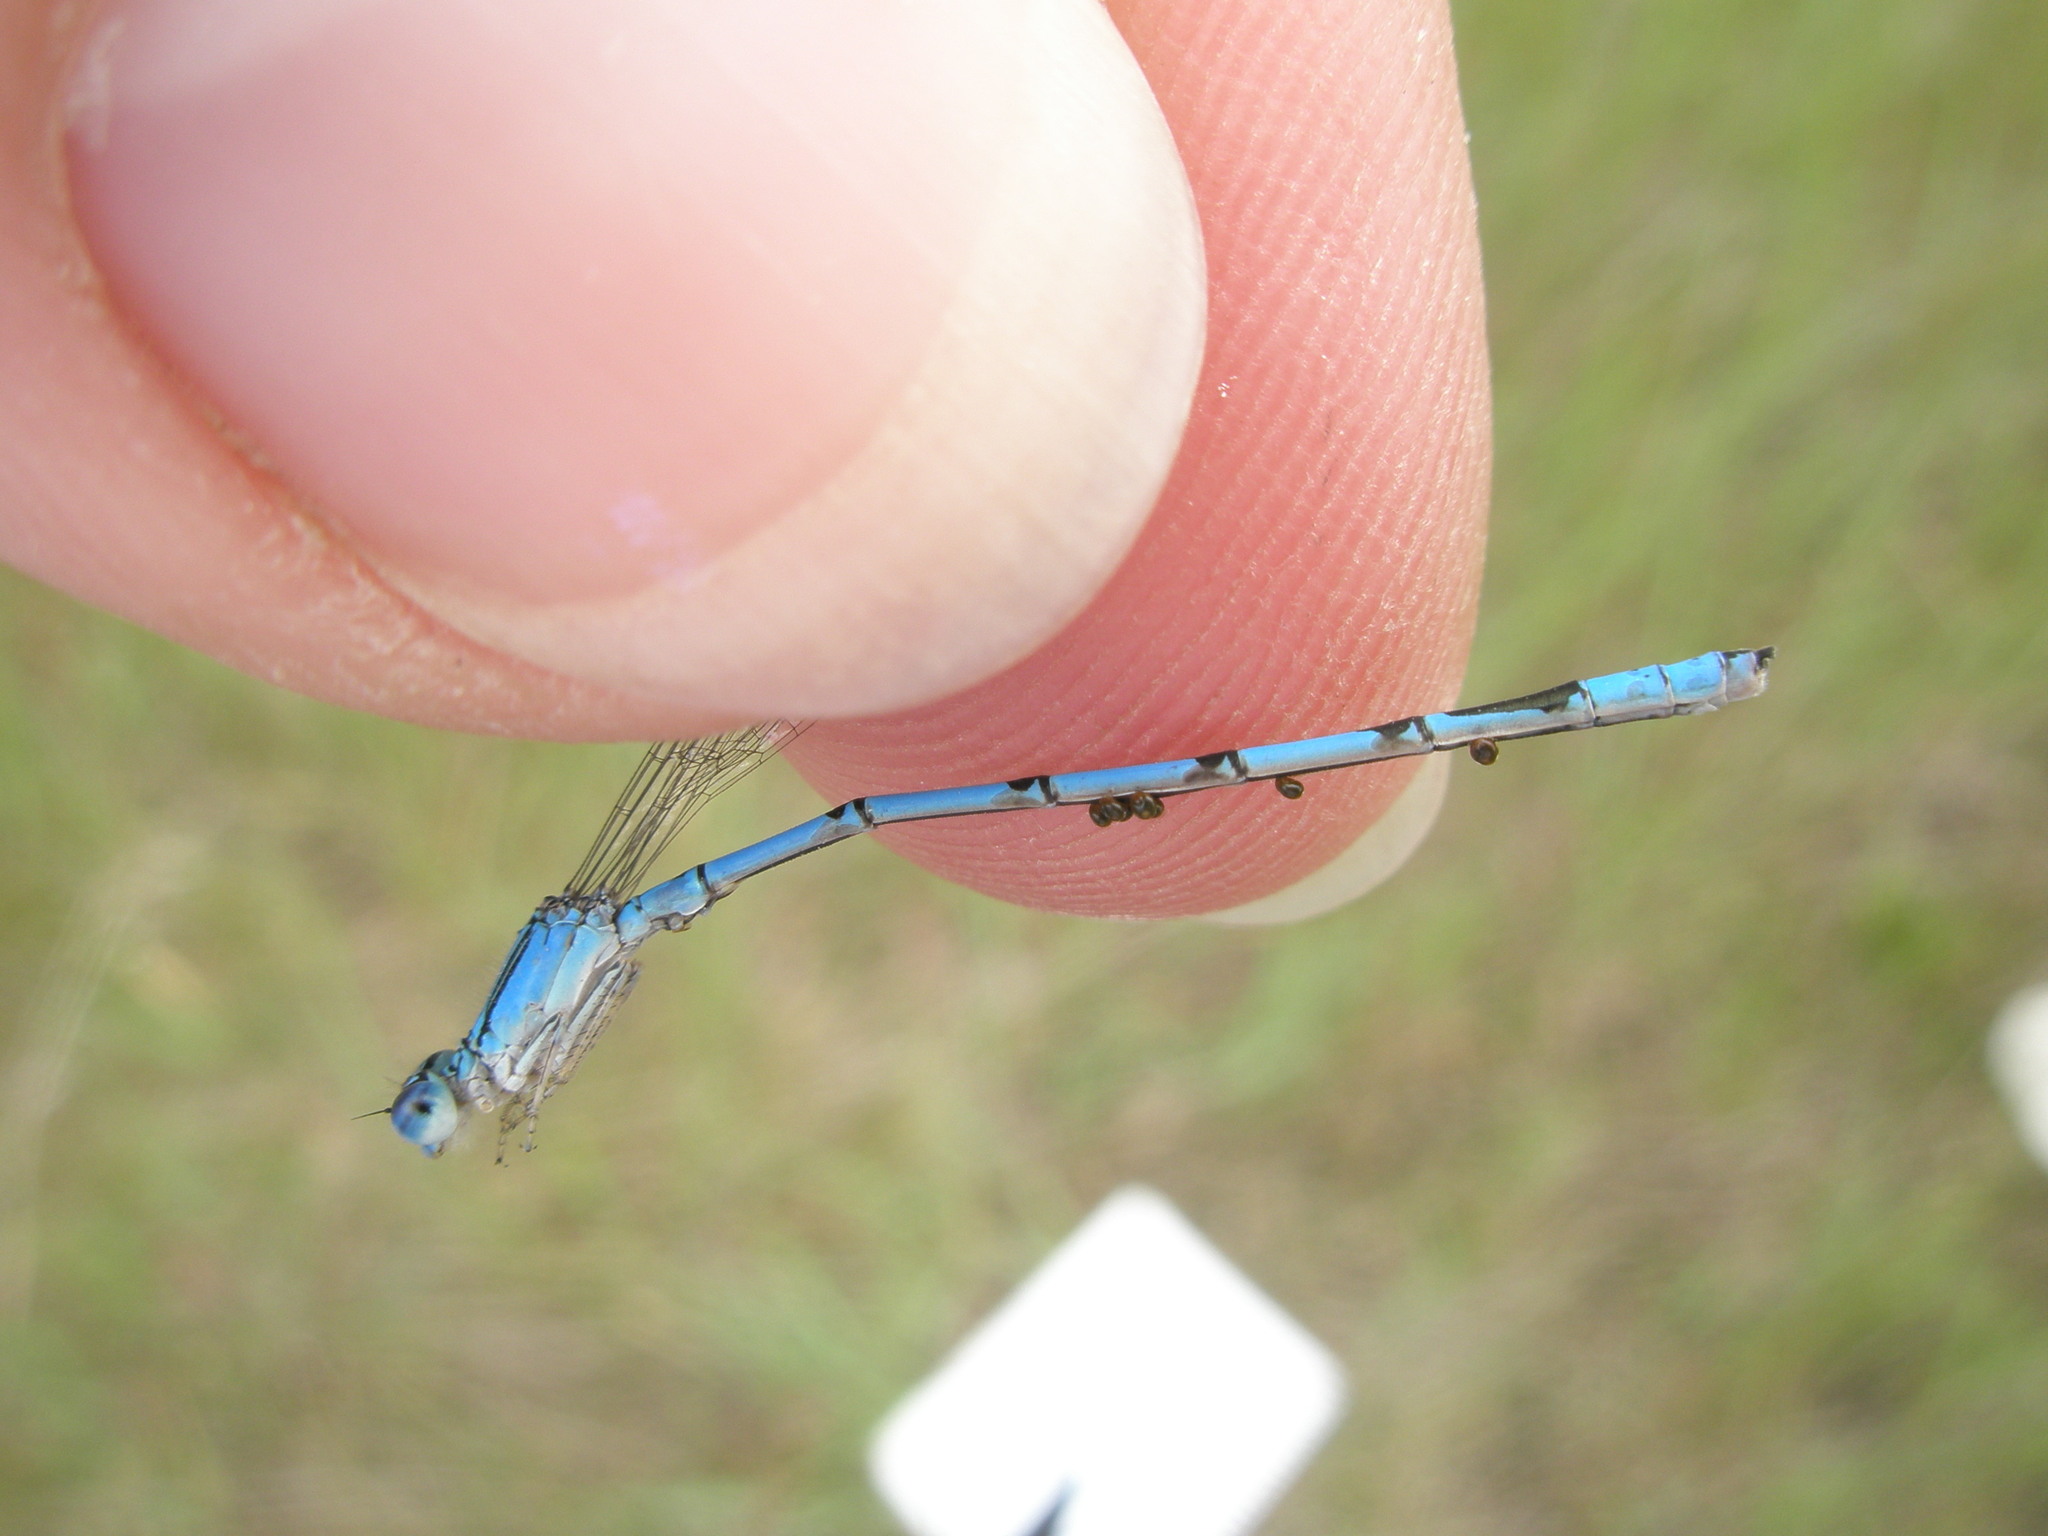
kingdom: Animalia
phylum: Arthropoda
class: Insecta
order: Odonata
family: Coenagrionidae
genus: Enallagma
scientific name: Enallagma basidens
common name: Double-striped bluet
